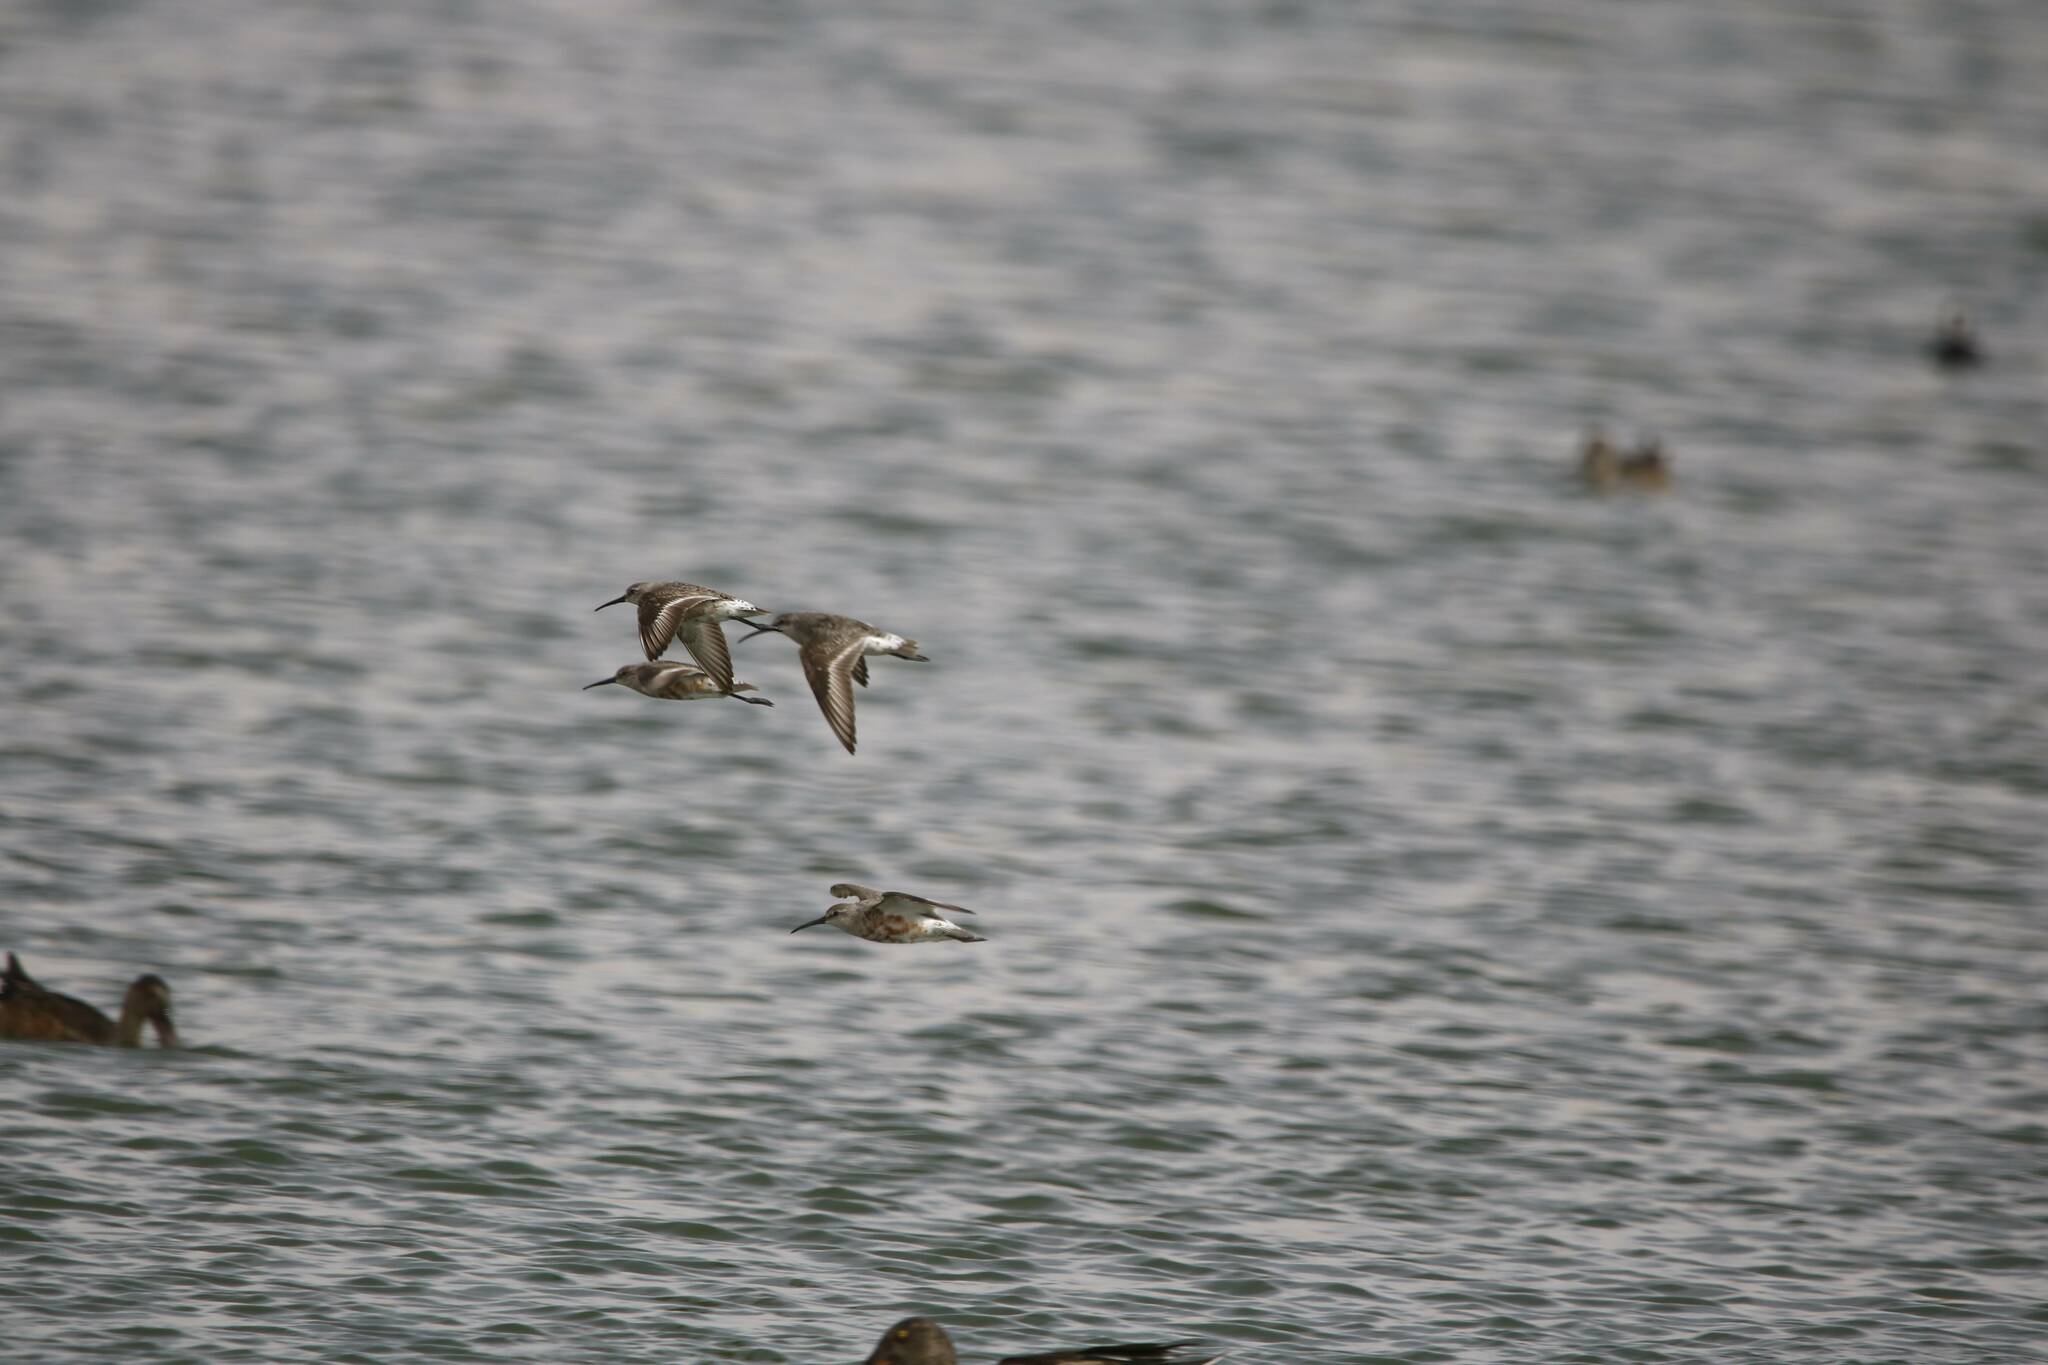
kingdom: Animalia
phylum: Chordata
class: Aves
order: Charadriiformes
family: Scolopacidae
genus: Calidris
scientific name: Calidris ferruginea
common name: Curlew sandpiper
